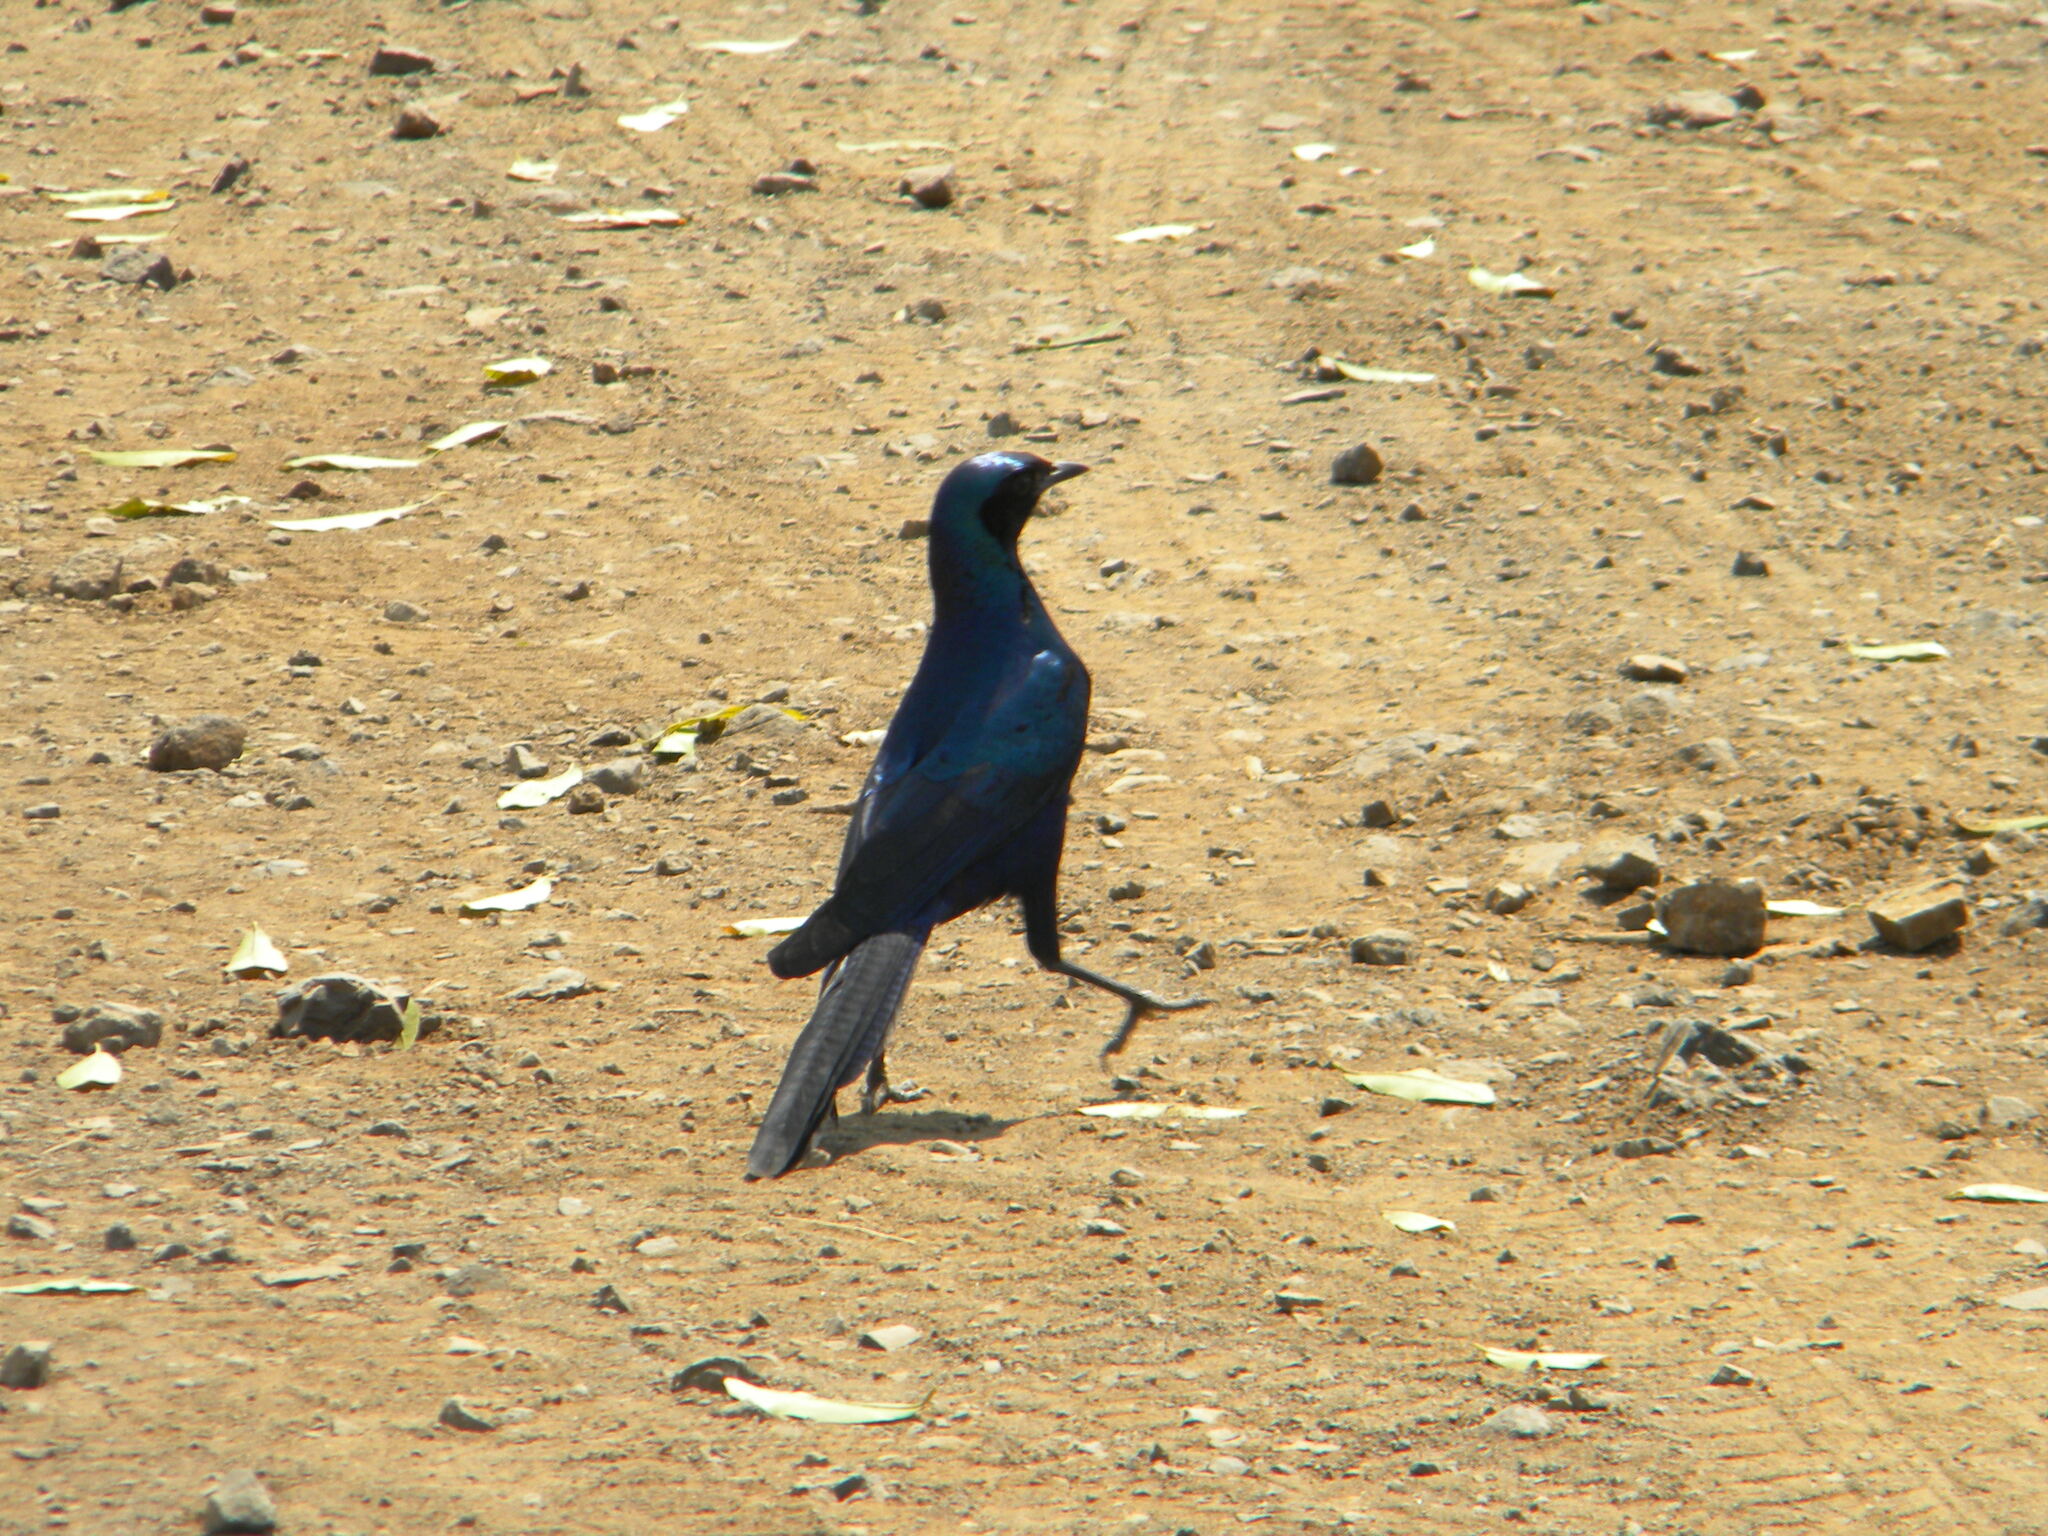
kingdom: Animalia
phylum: Chordata
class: Aves
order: Passeriformes
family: Sturnidae
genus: Lamprotornis
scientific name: Lamprotornis australis
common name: Burchell's starling
